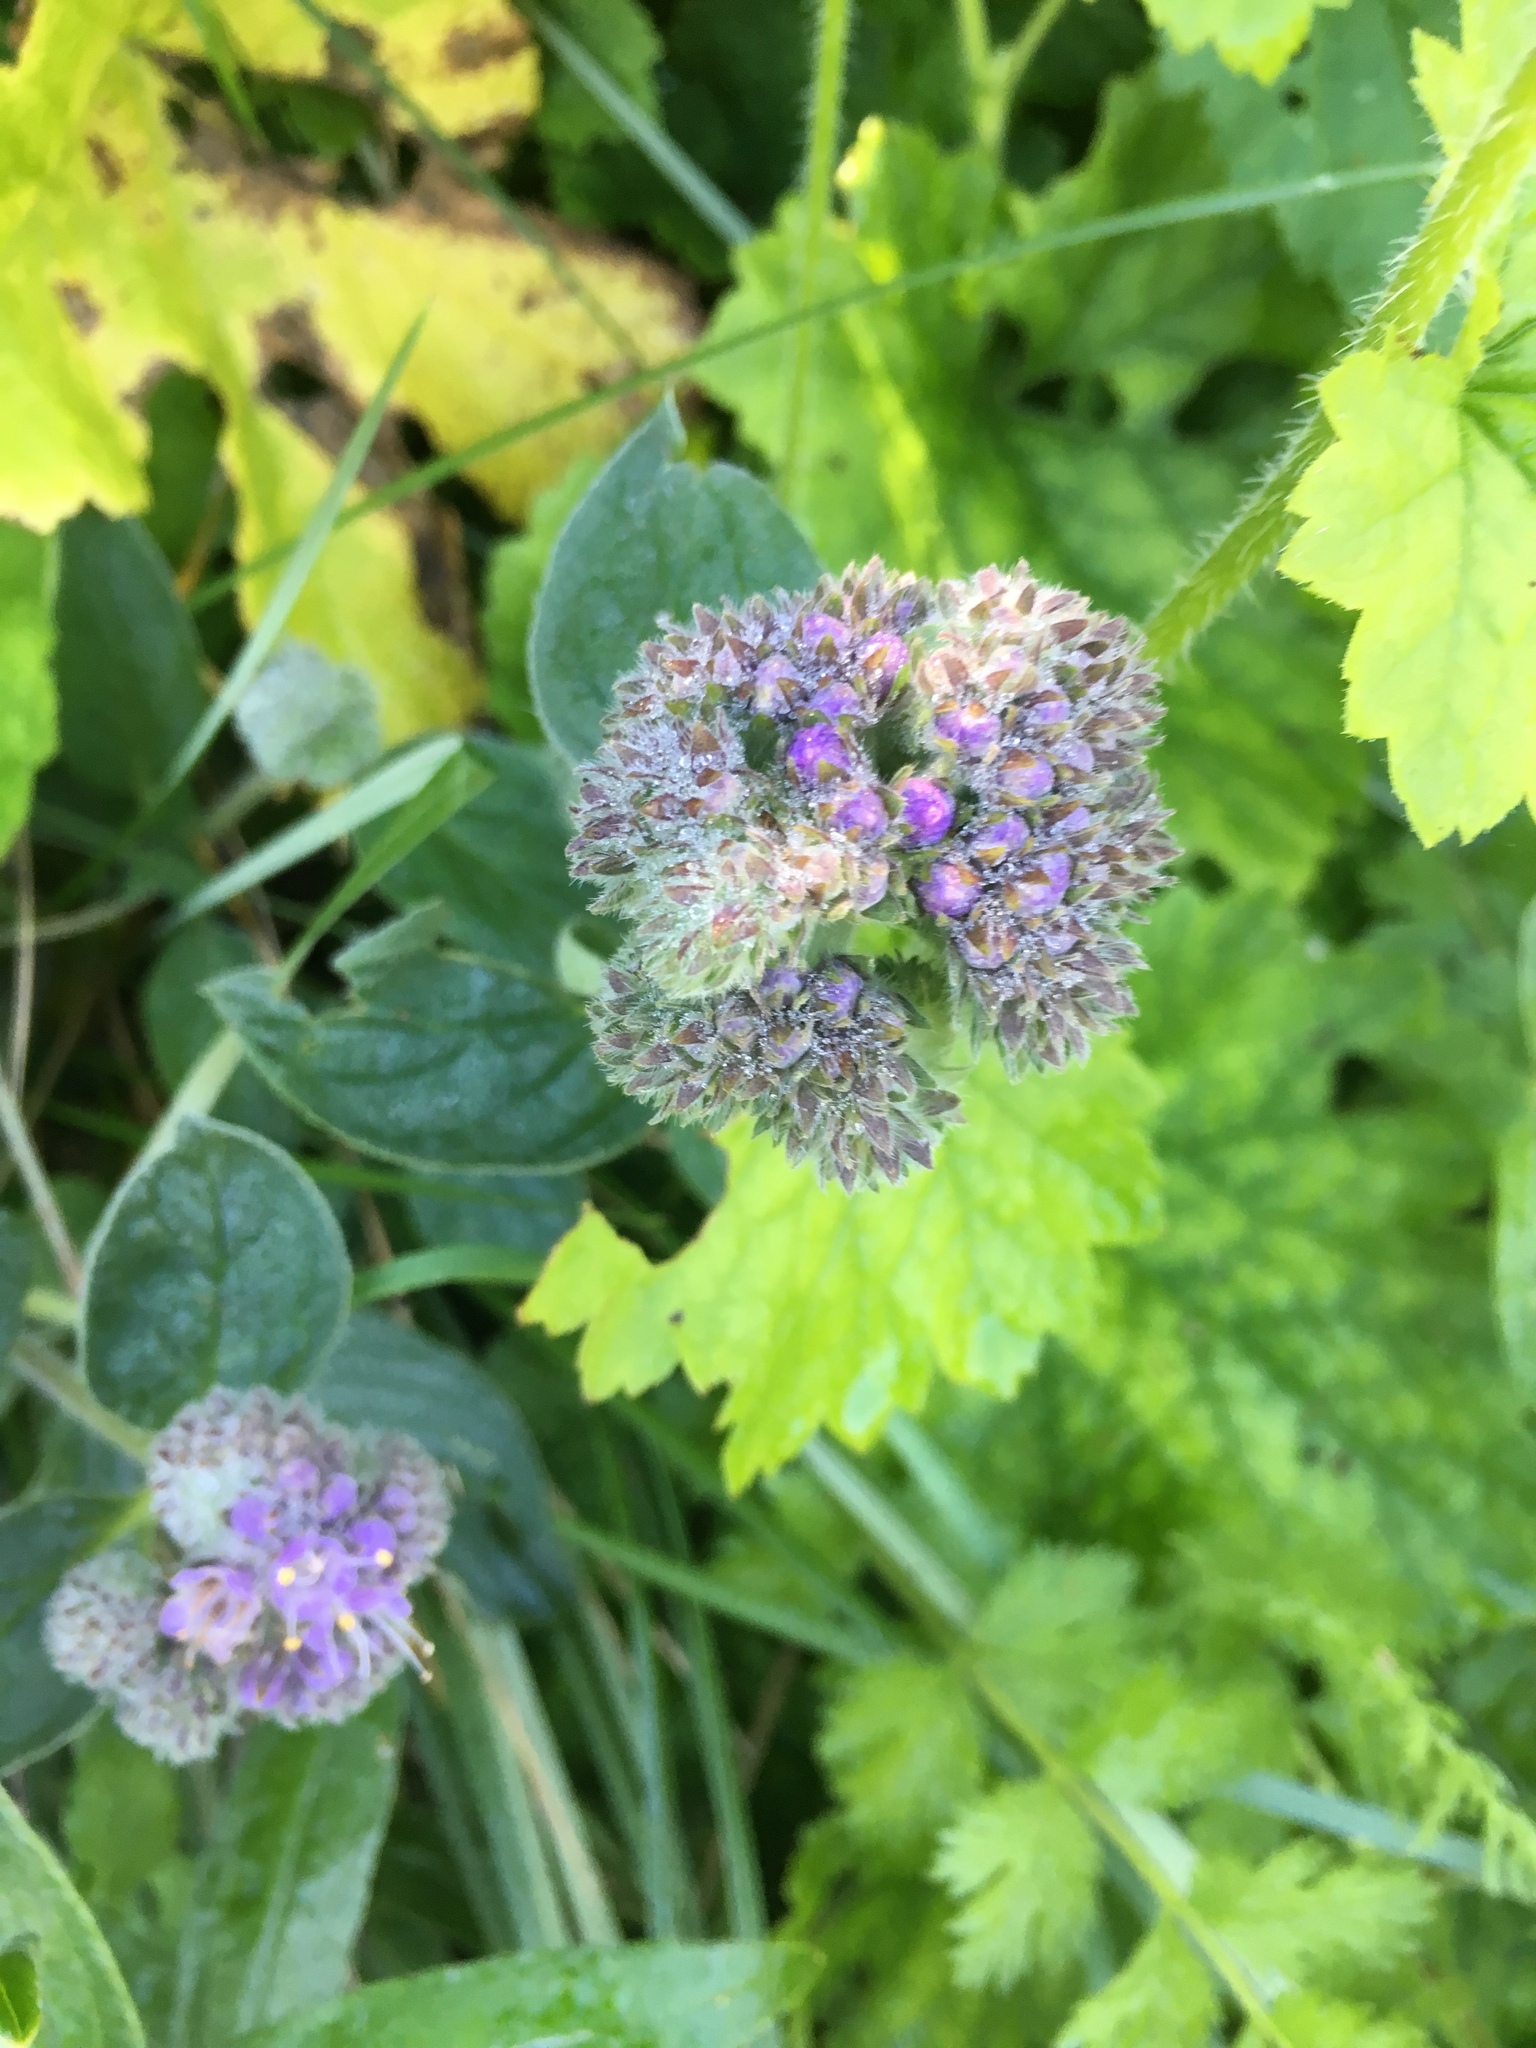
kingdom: Plantae
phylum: Tracheophyta
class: Magnoliopsida
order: Boraginales
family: Hydrophyllaceae
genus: Phacelia
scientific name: Phacelia californica
